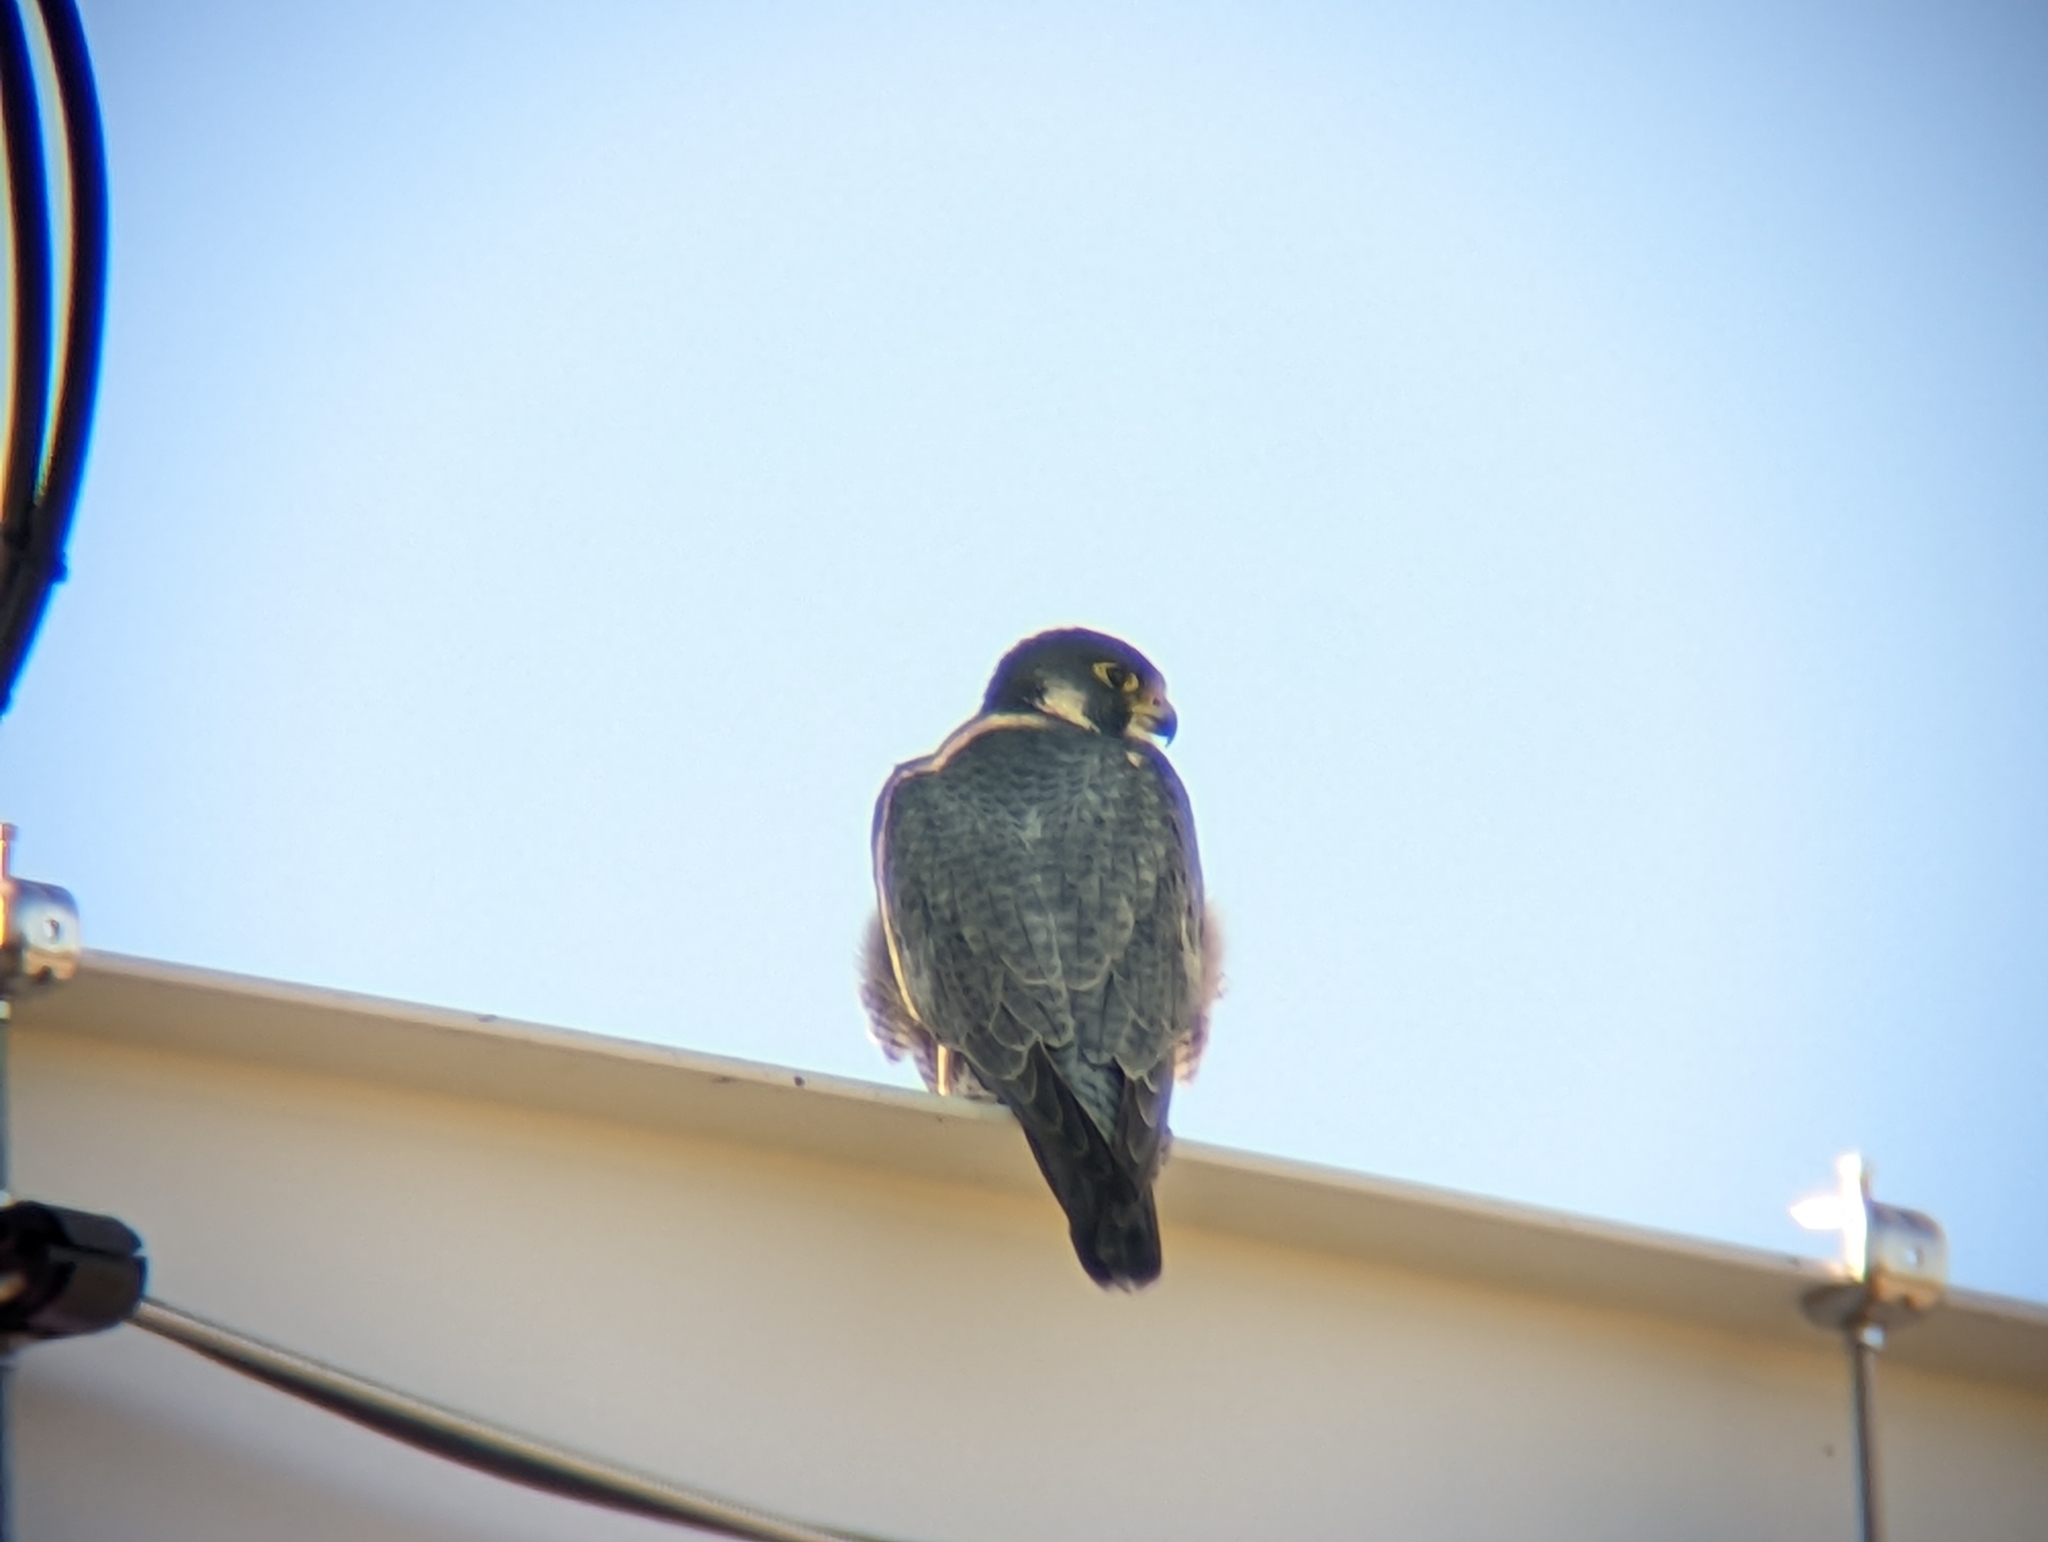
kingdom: Animalia
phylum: Chordata
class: Aves
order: Falconiformes
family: Falconidae
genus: Falco
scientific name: Falco peregrinus
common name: Peregrine falcon
